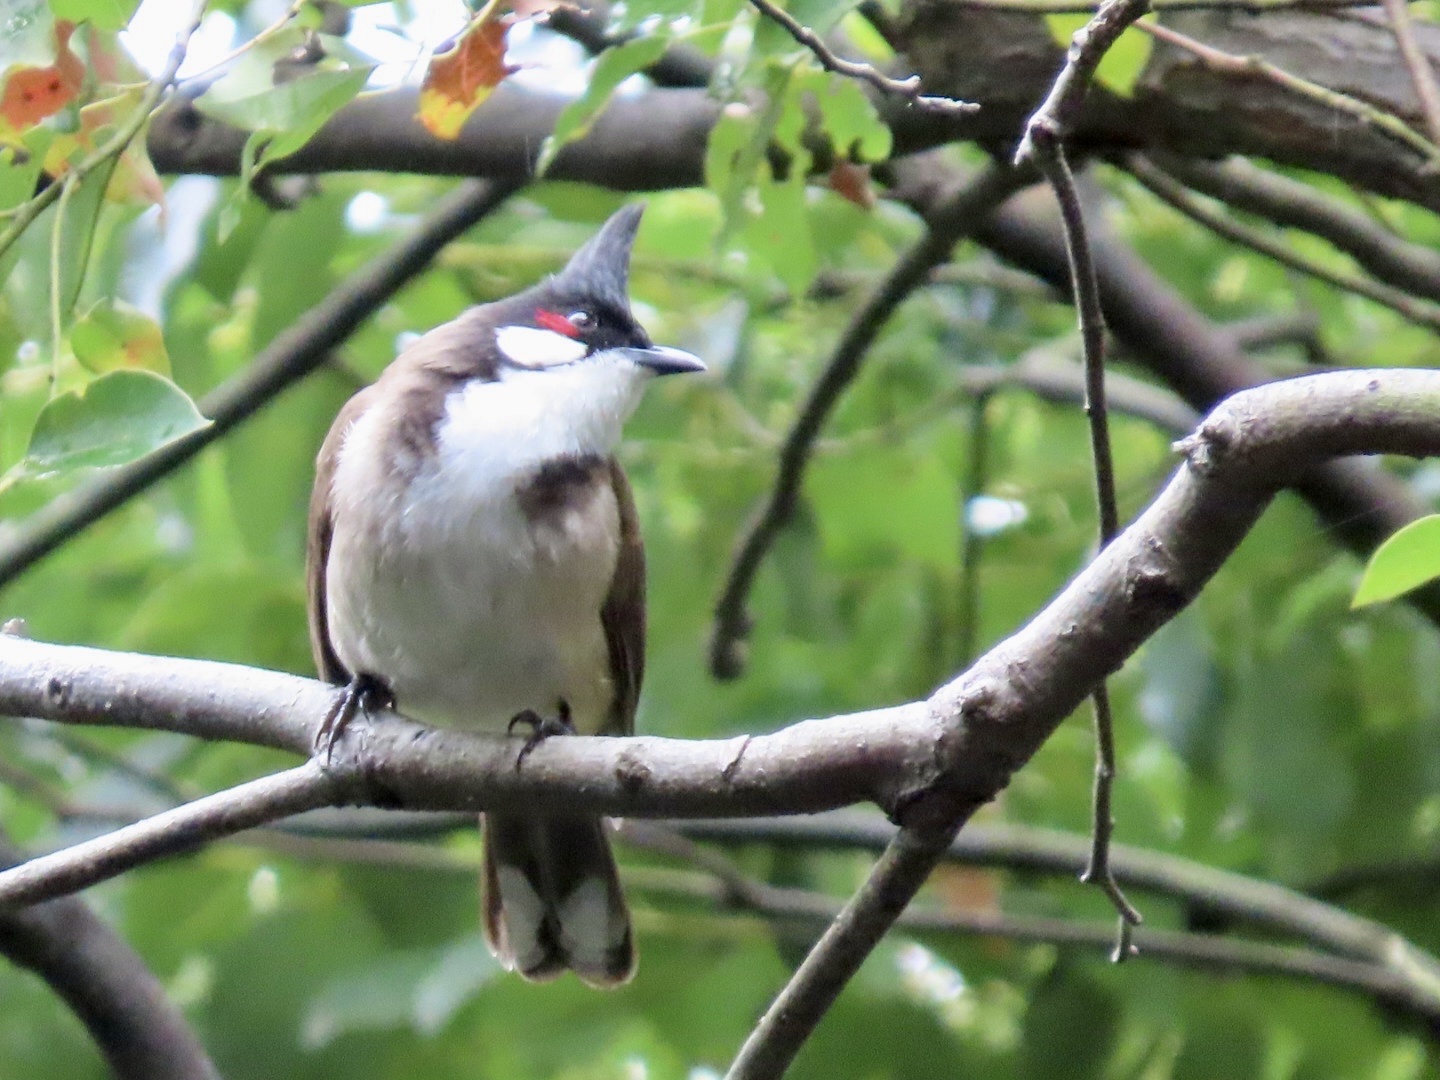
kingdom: Animalia
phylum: Chordata
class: Aves
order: Passeriformes
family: Pycnonotidae
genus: Pycnonotus
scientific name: Pycnonotus jocosus
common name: Red-whiskered bulbul
